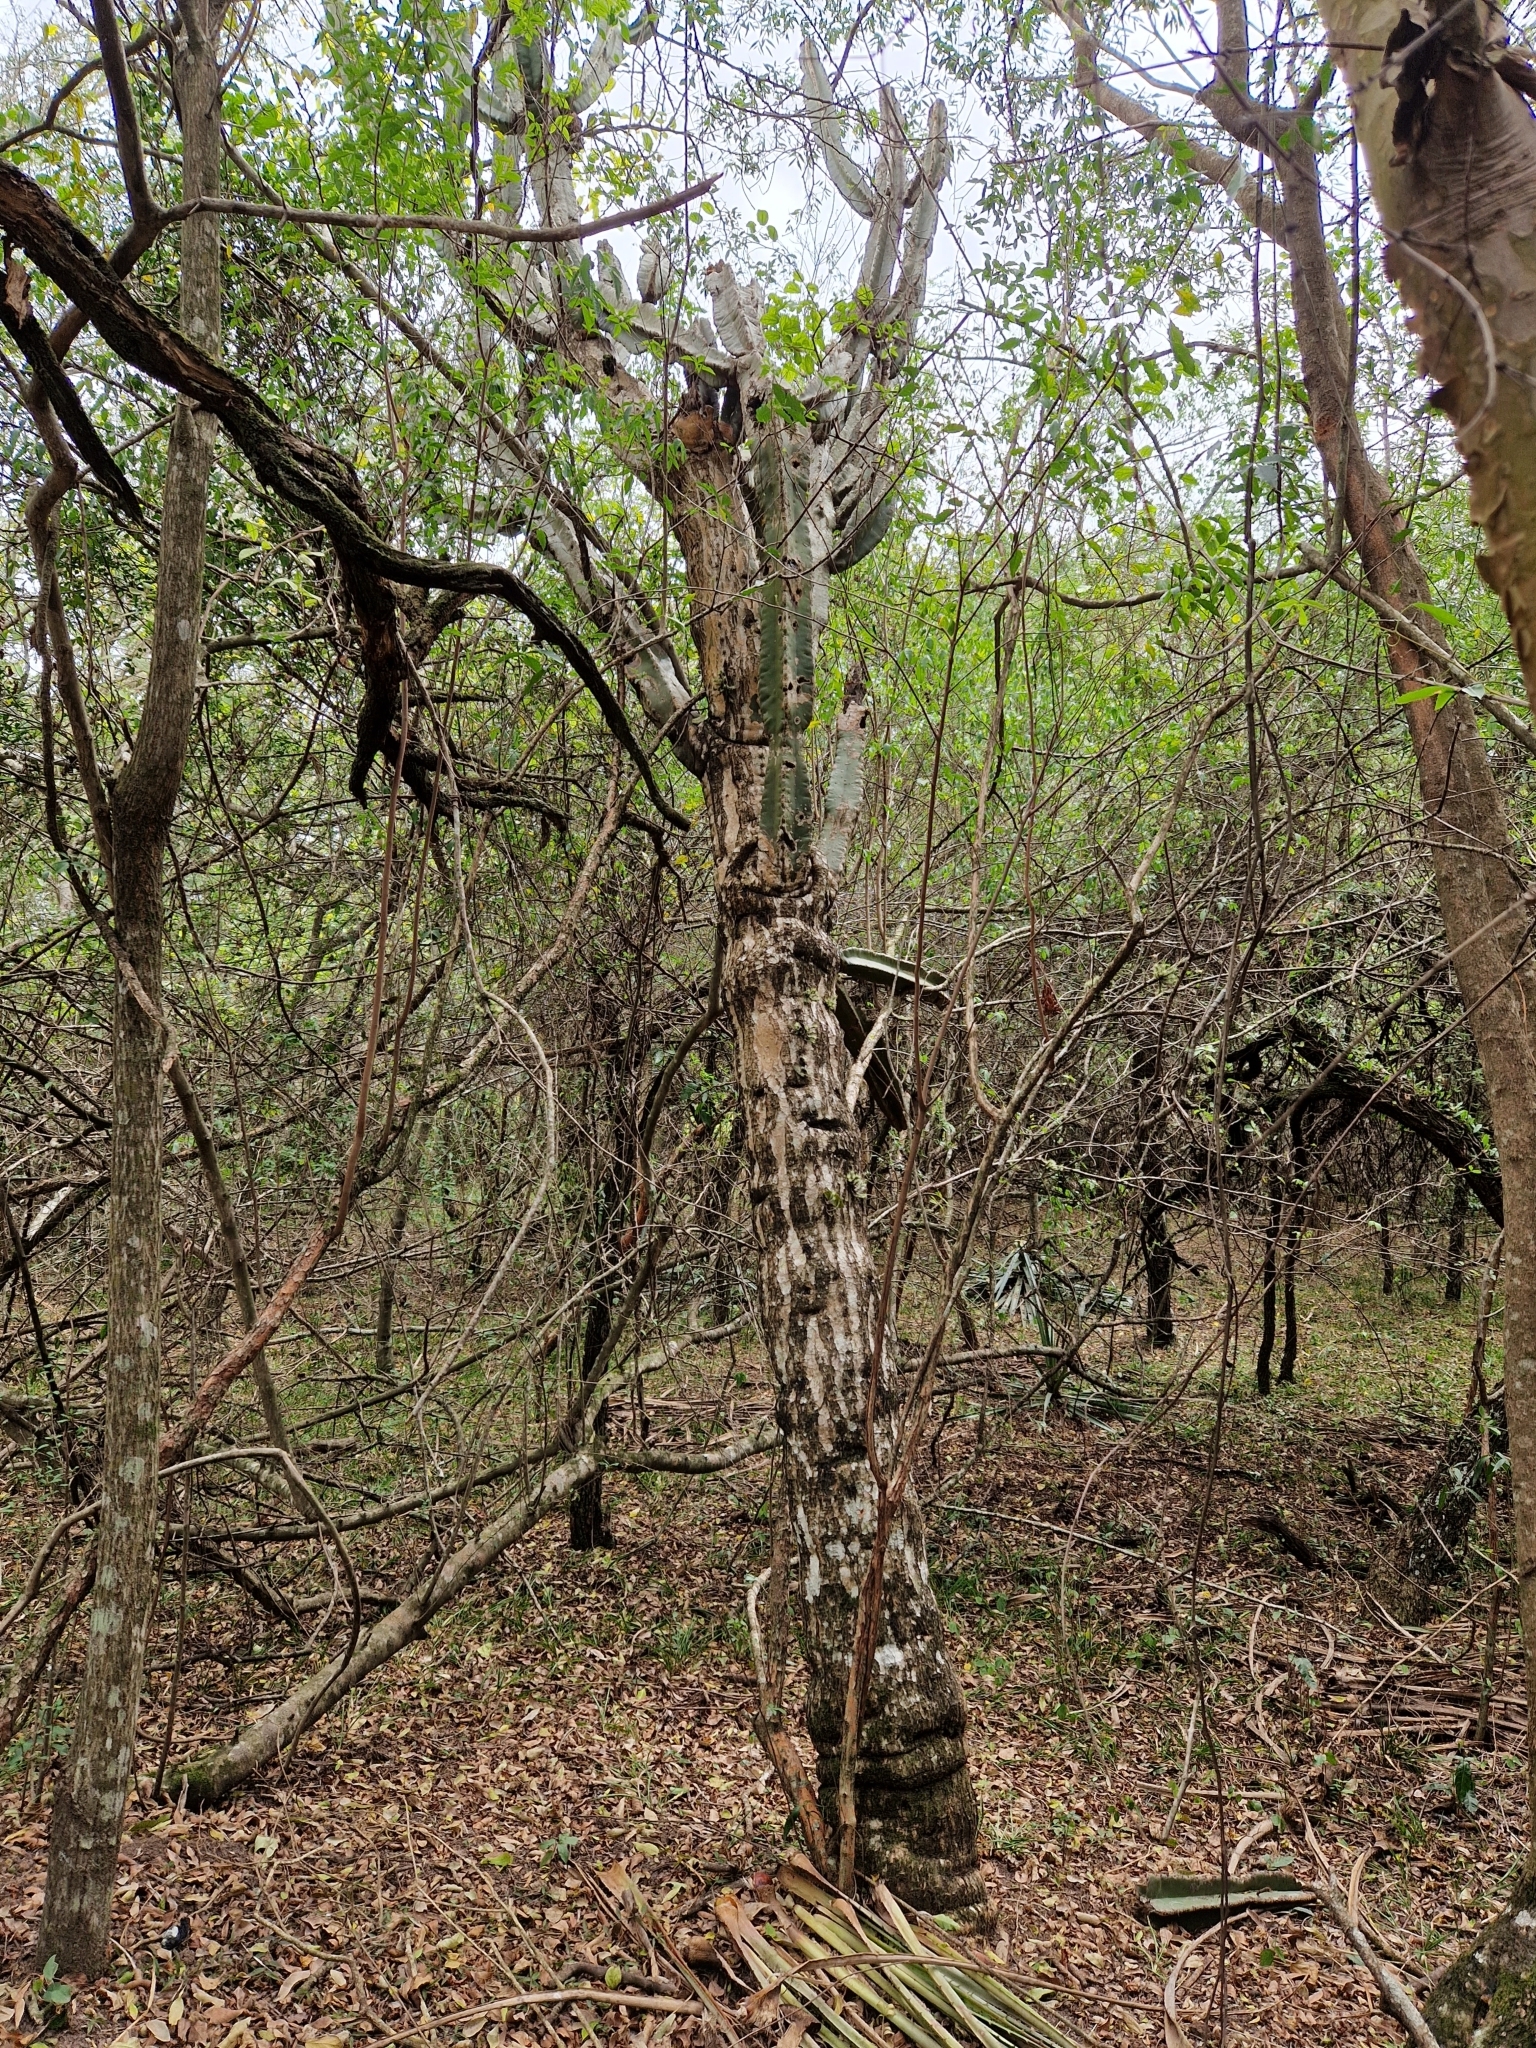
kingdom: Plantae
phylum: Tracheophyta
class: Magnoliopsida
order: Caryophyllales
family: Cactaceae
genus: Cereus
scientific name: Cereus stenogonus
